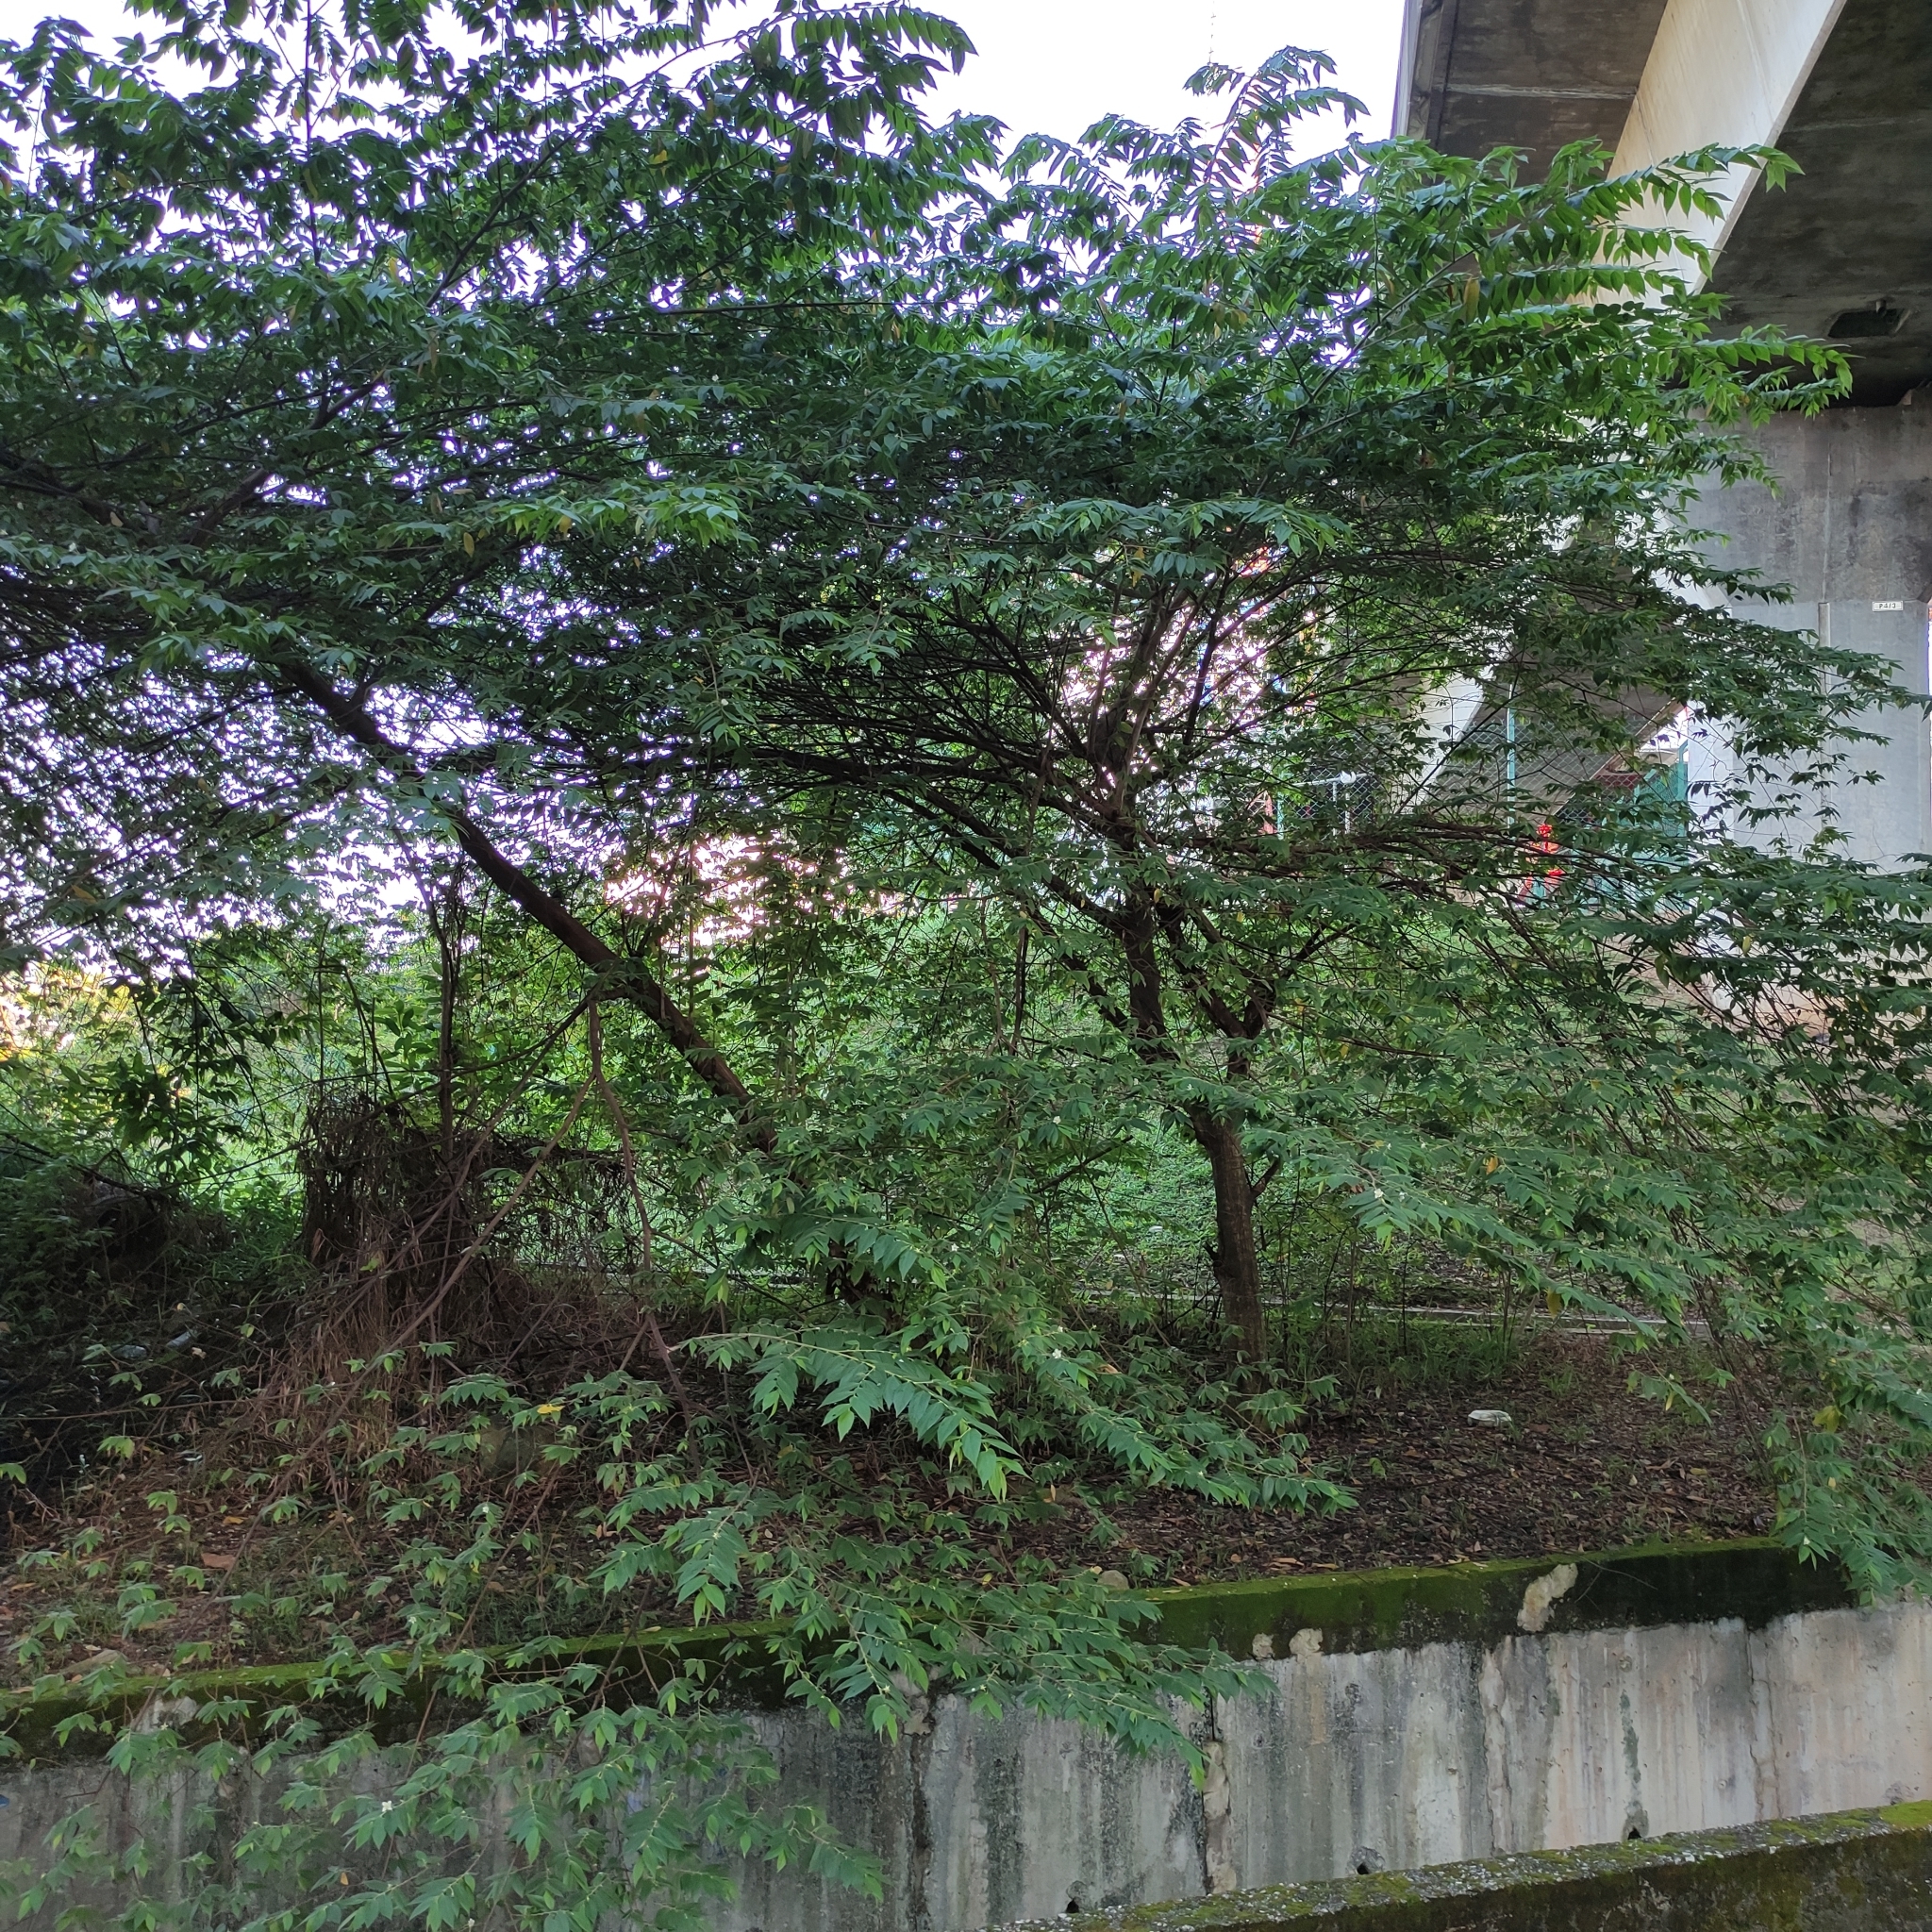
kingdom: Plantae
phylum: Tracheophyta
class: Magnoliopsida
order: Malvales
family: Muntingiaceae
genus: Muntingia
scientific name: Muntingia calabura
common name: Strawberrytree
